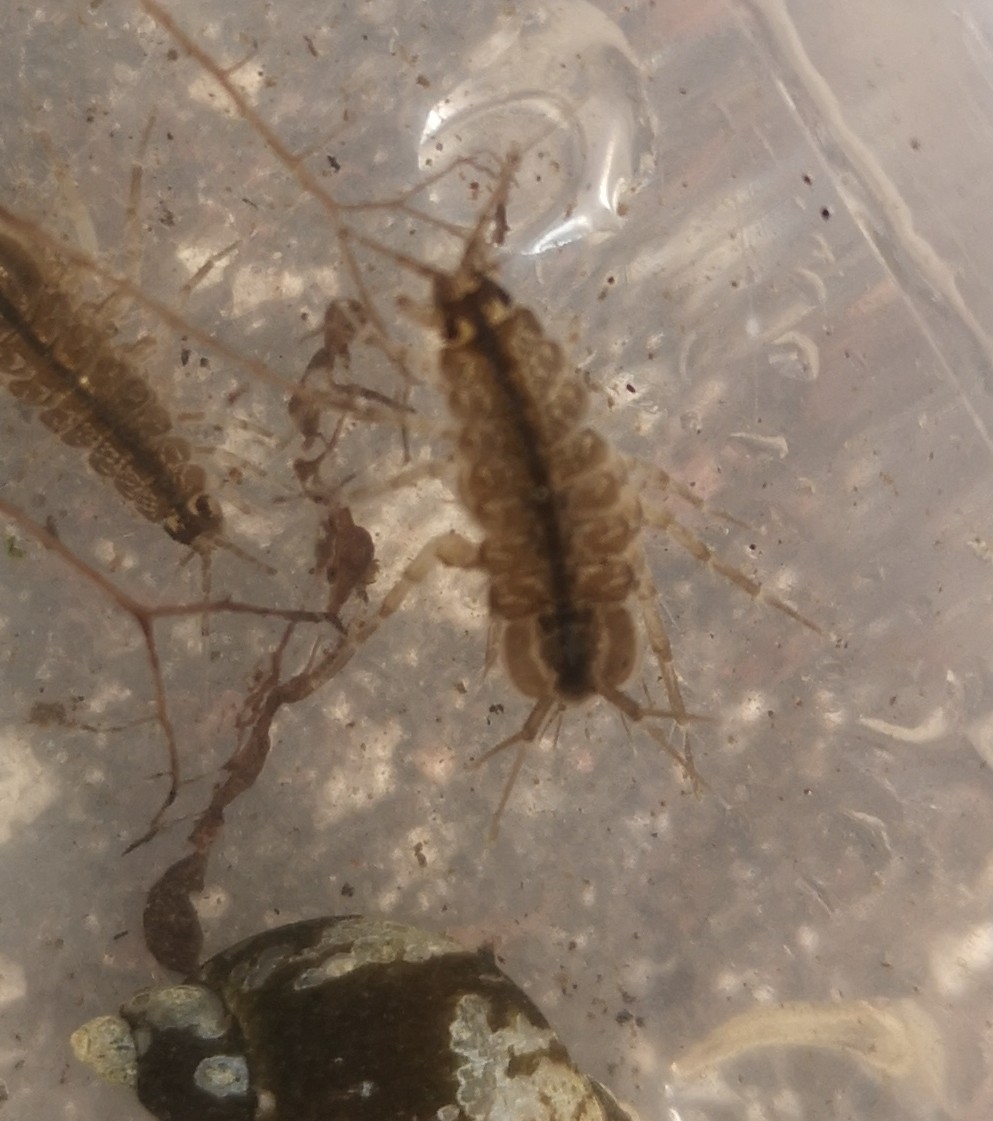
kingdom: Animalia
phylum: Arthropoda
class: Malacostraca
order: Isopoda
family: Asellidae
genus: Asellus
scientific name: Asellus aquaticus
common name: Water hog lice/slaters
